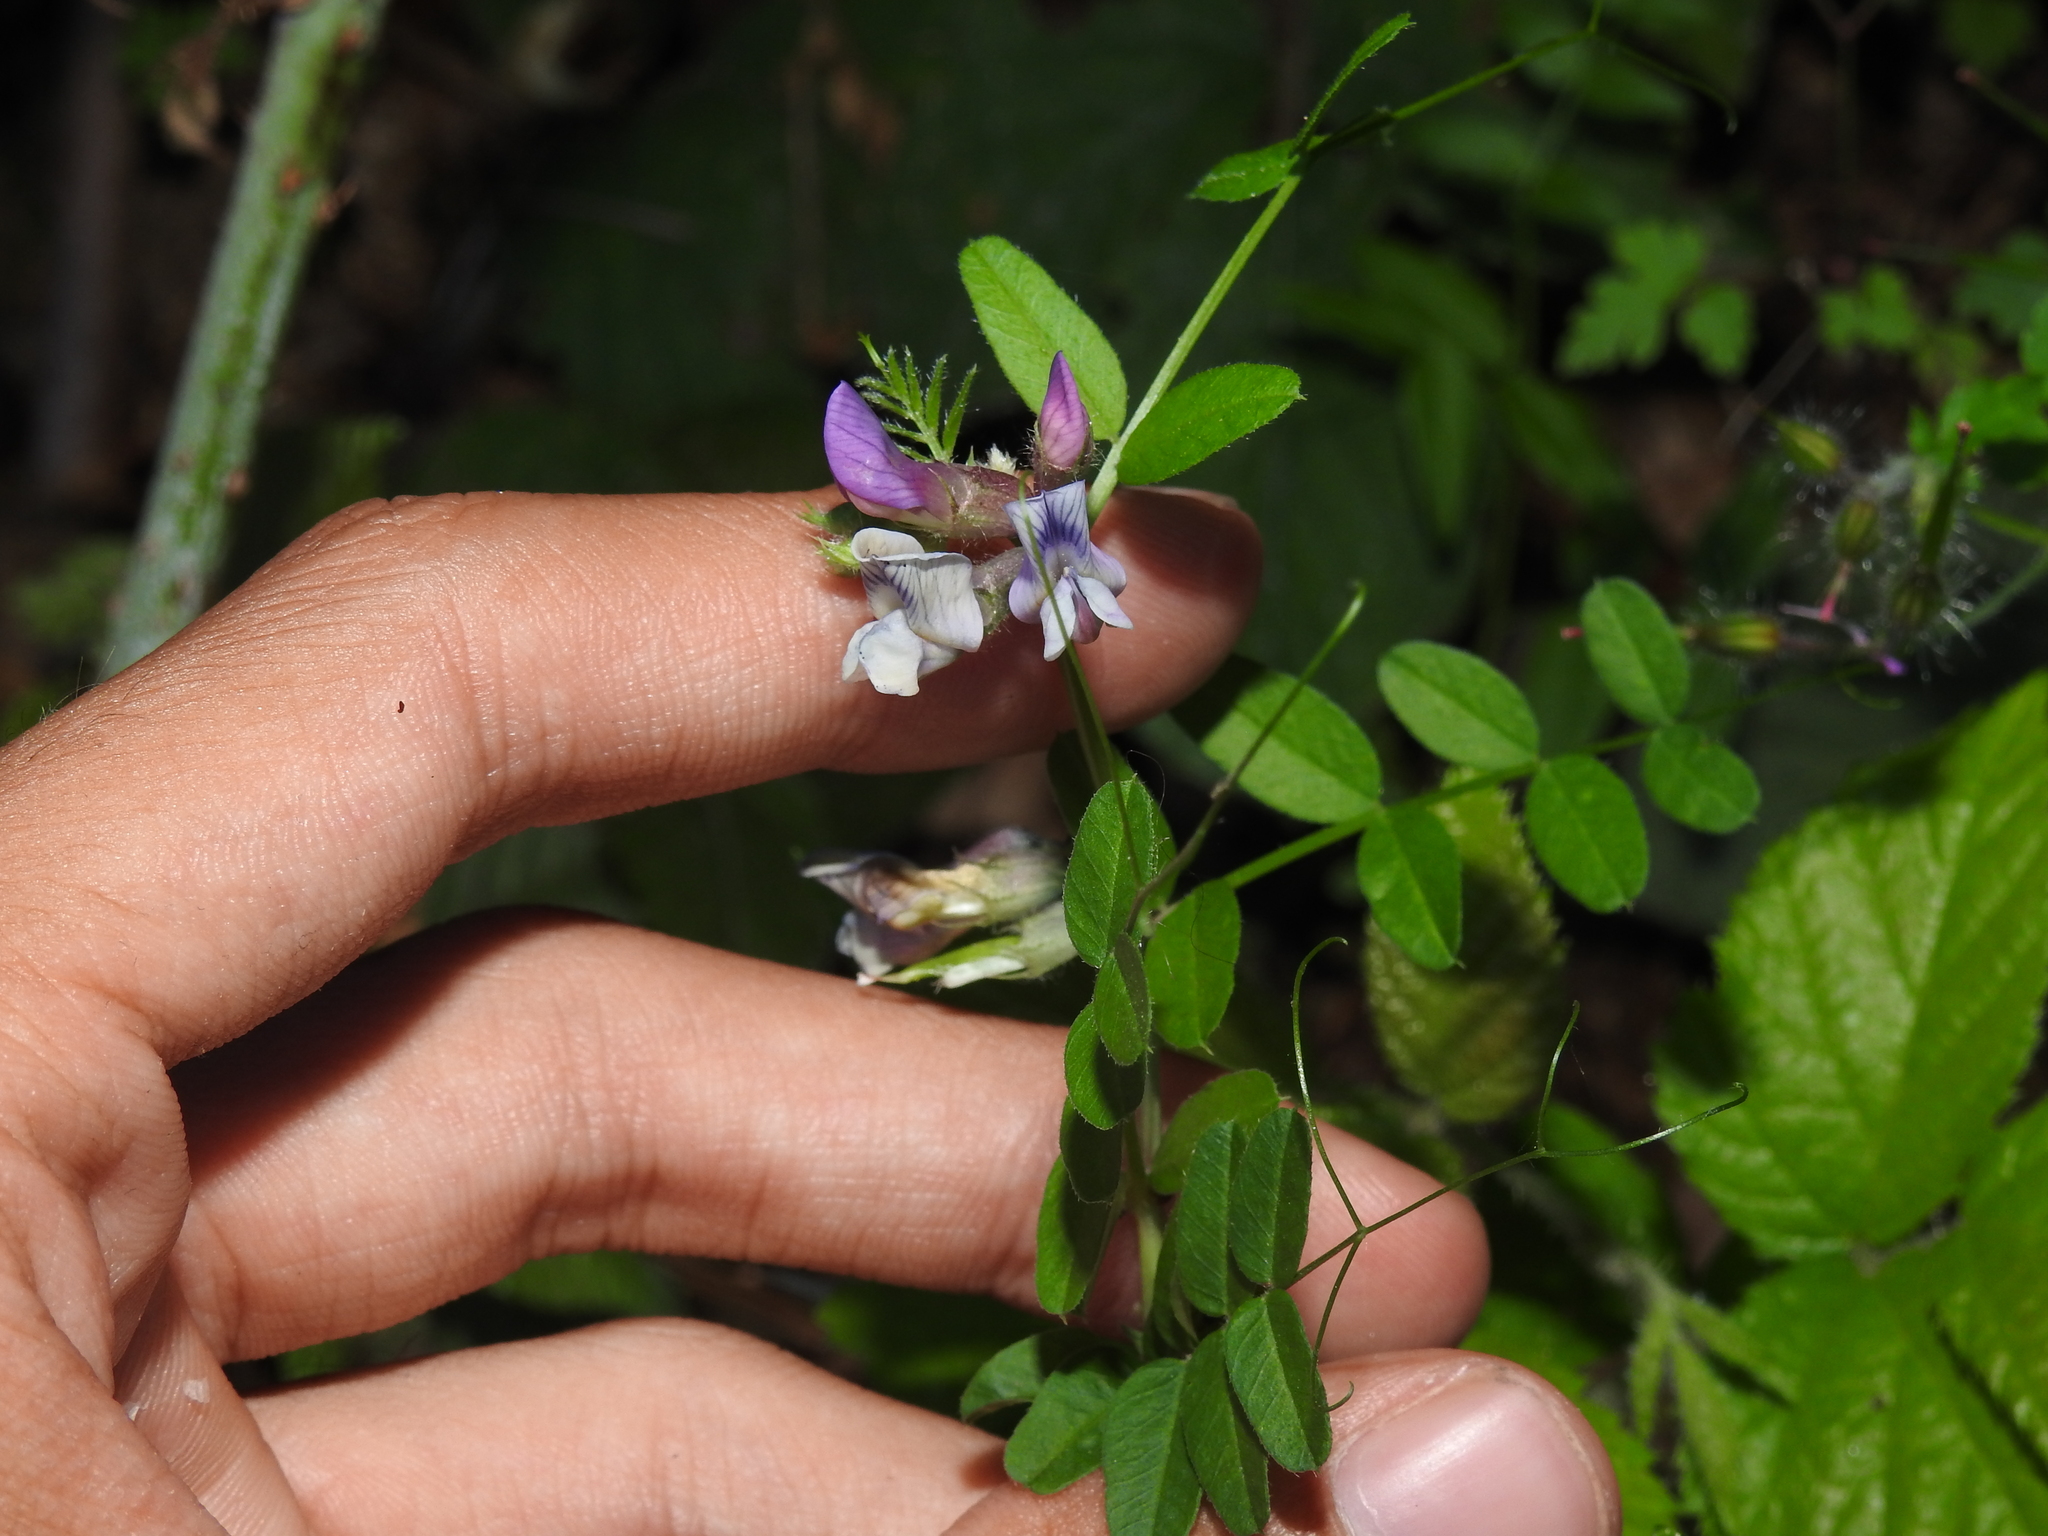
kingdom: Plantae
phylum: Tracheophyta
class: Magnoliopsida
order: Fabales
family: Fabaceae
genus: Vicia
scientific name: Vicia sepium
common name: Bush vetch
